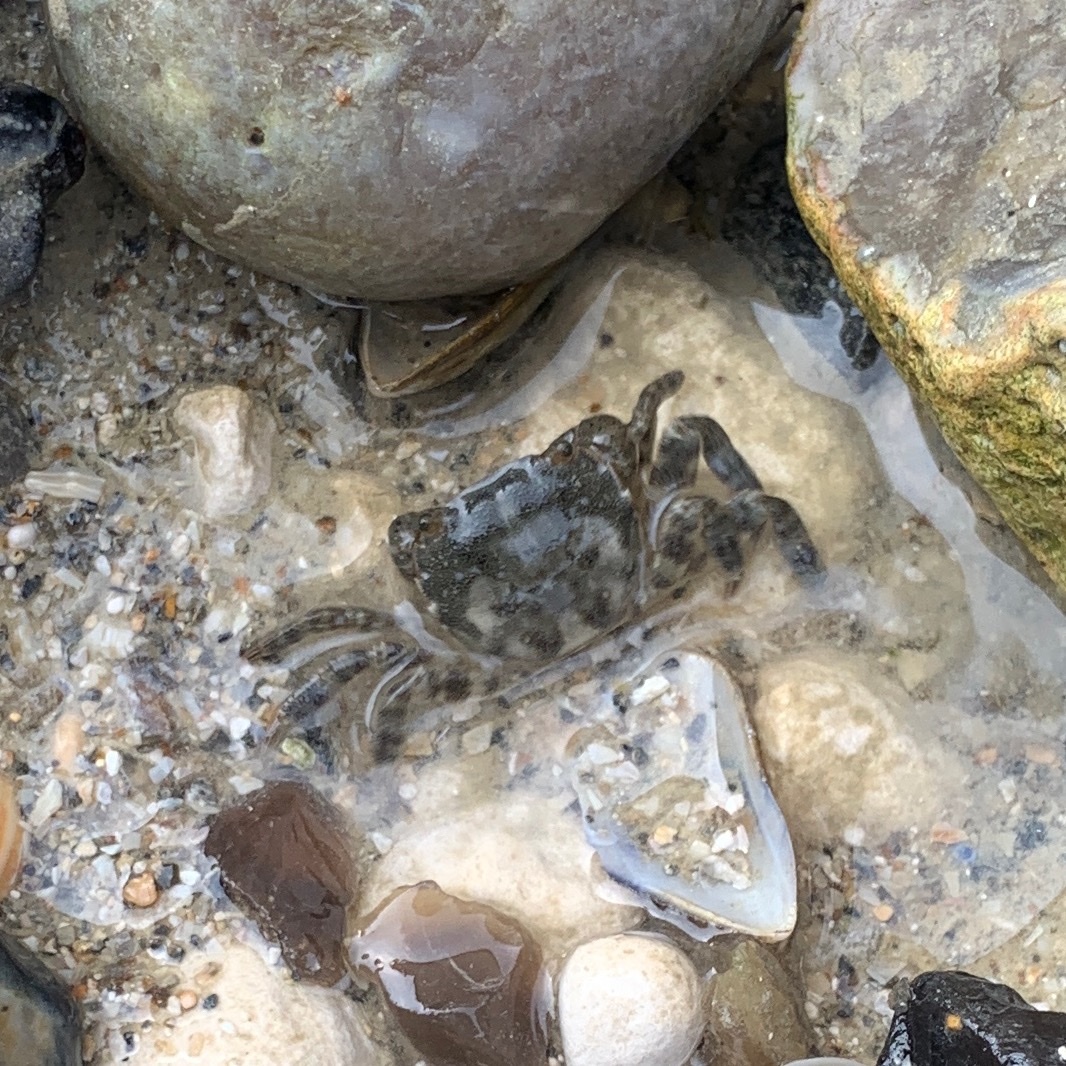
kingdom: Animalia
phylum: Arthropoda
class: Malacostraca
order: Decapoda
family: Varunidae
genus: Hemigrapsus
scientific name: Hemigrapsus sanguineus
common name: Asian shore crab
